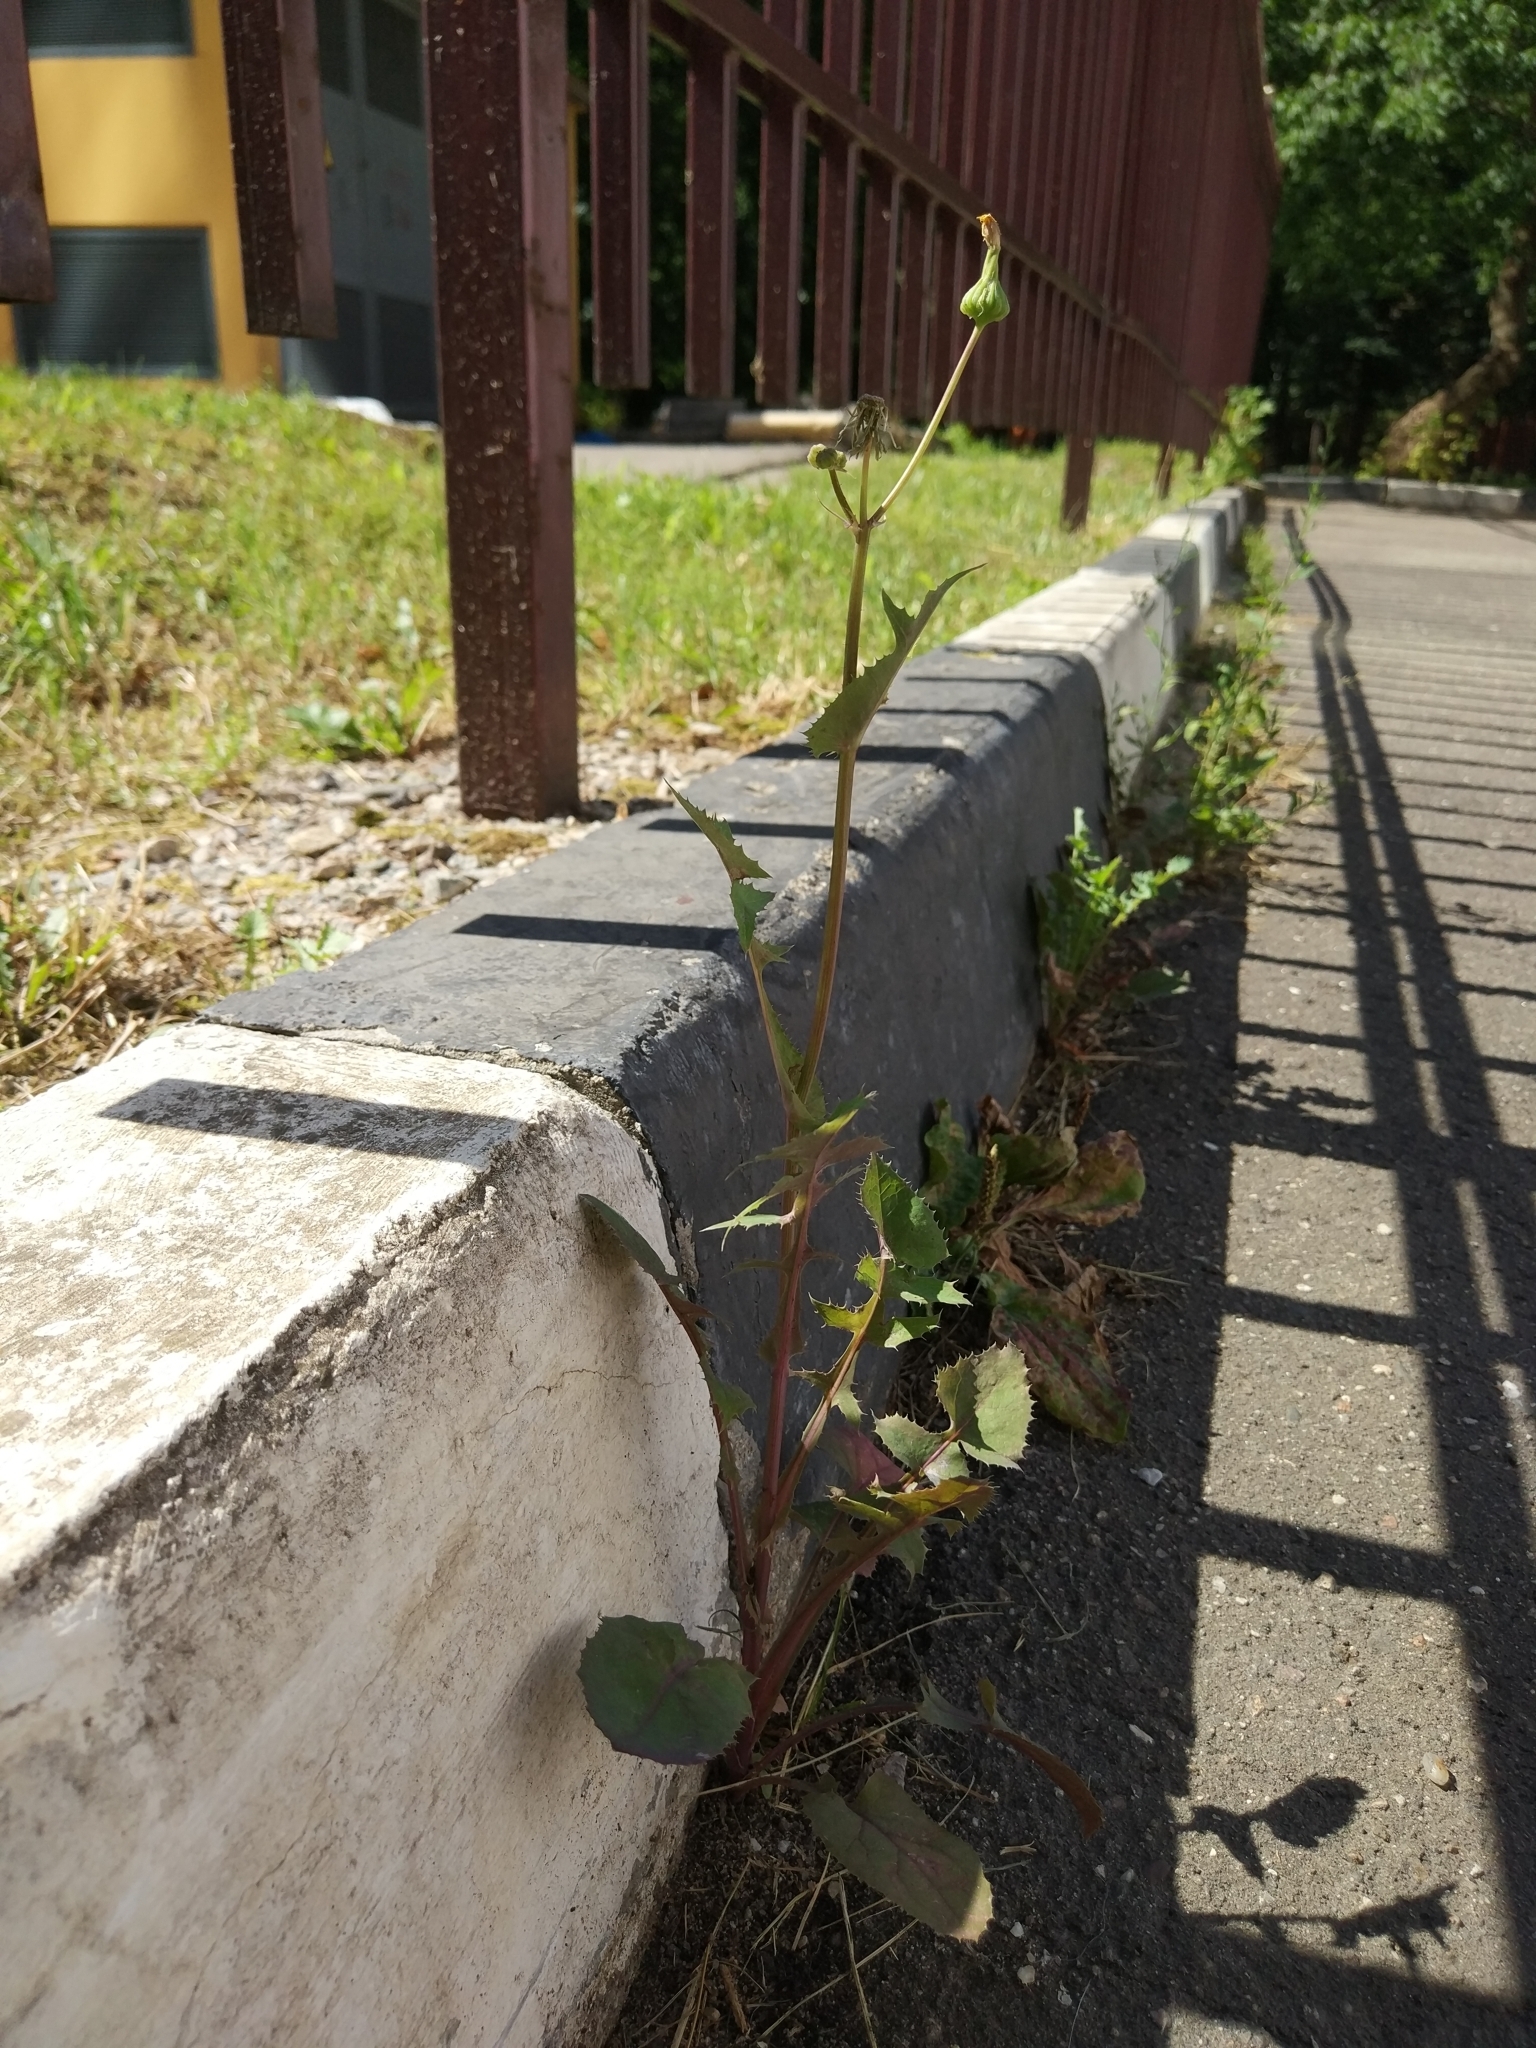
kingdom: Plantae
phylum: Tracheophyta
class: Magnoliopsida
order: Asterales
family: Asteraceae
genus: Sonchus
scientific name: Sonchus oleraceus
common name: Common sowthistle
